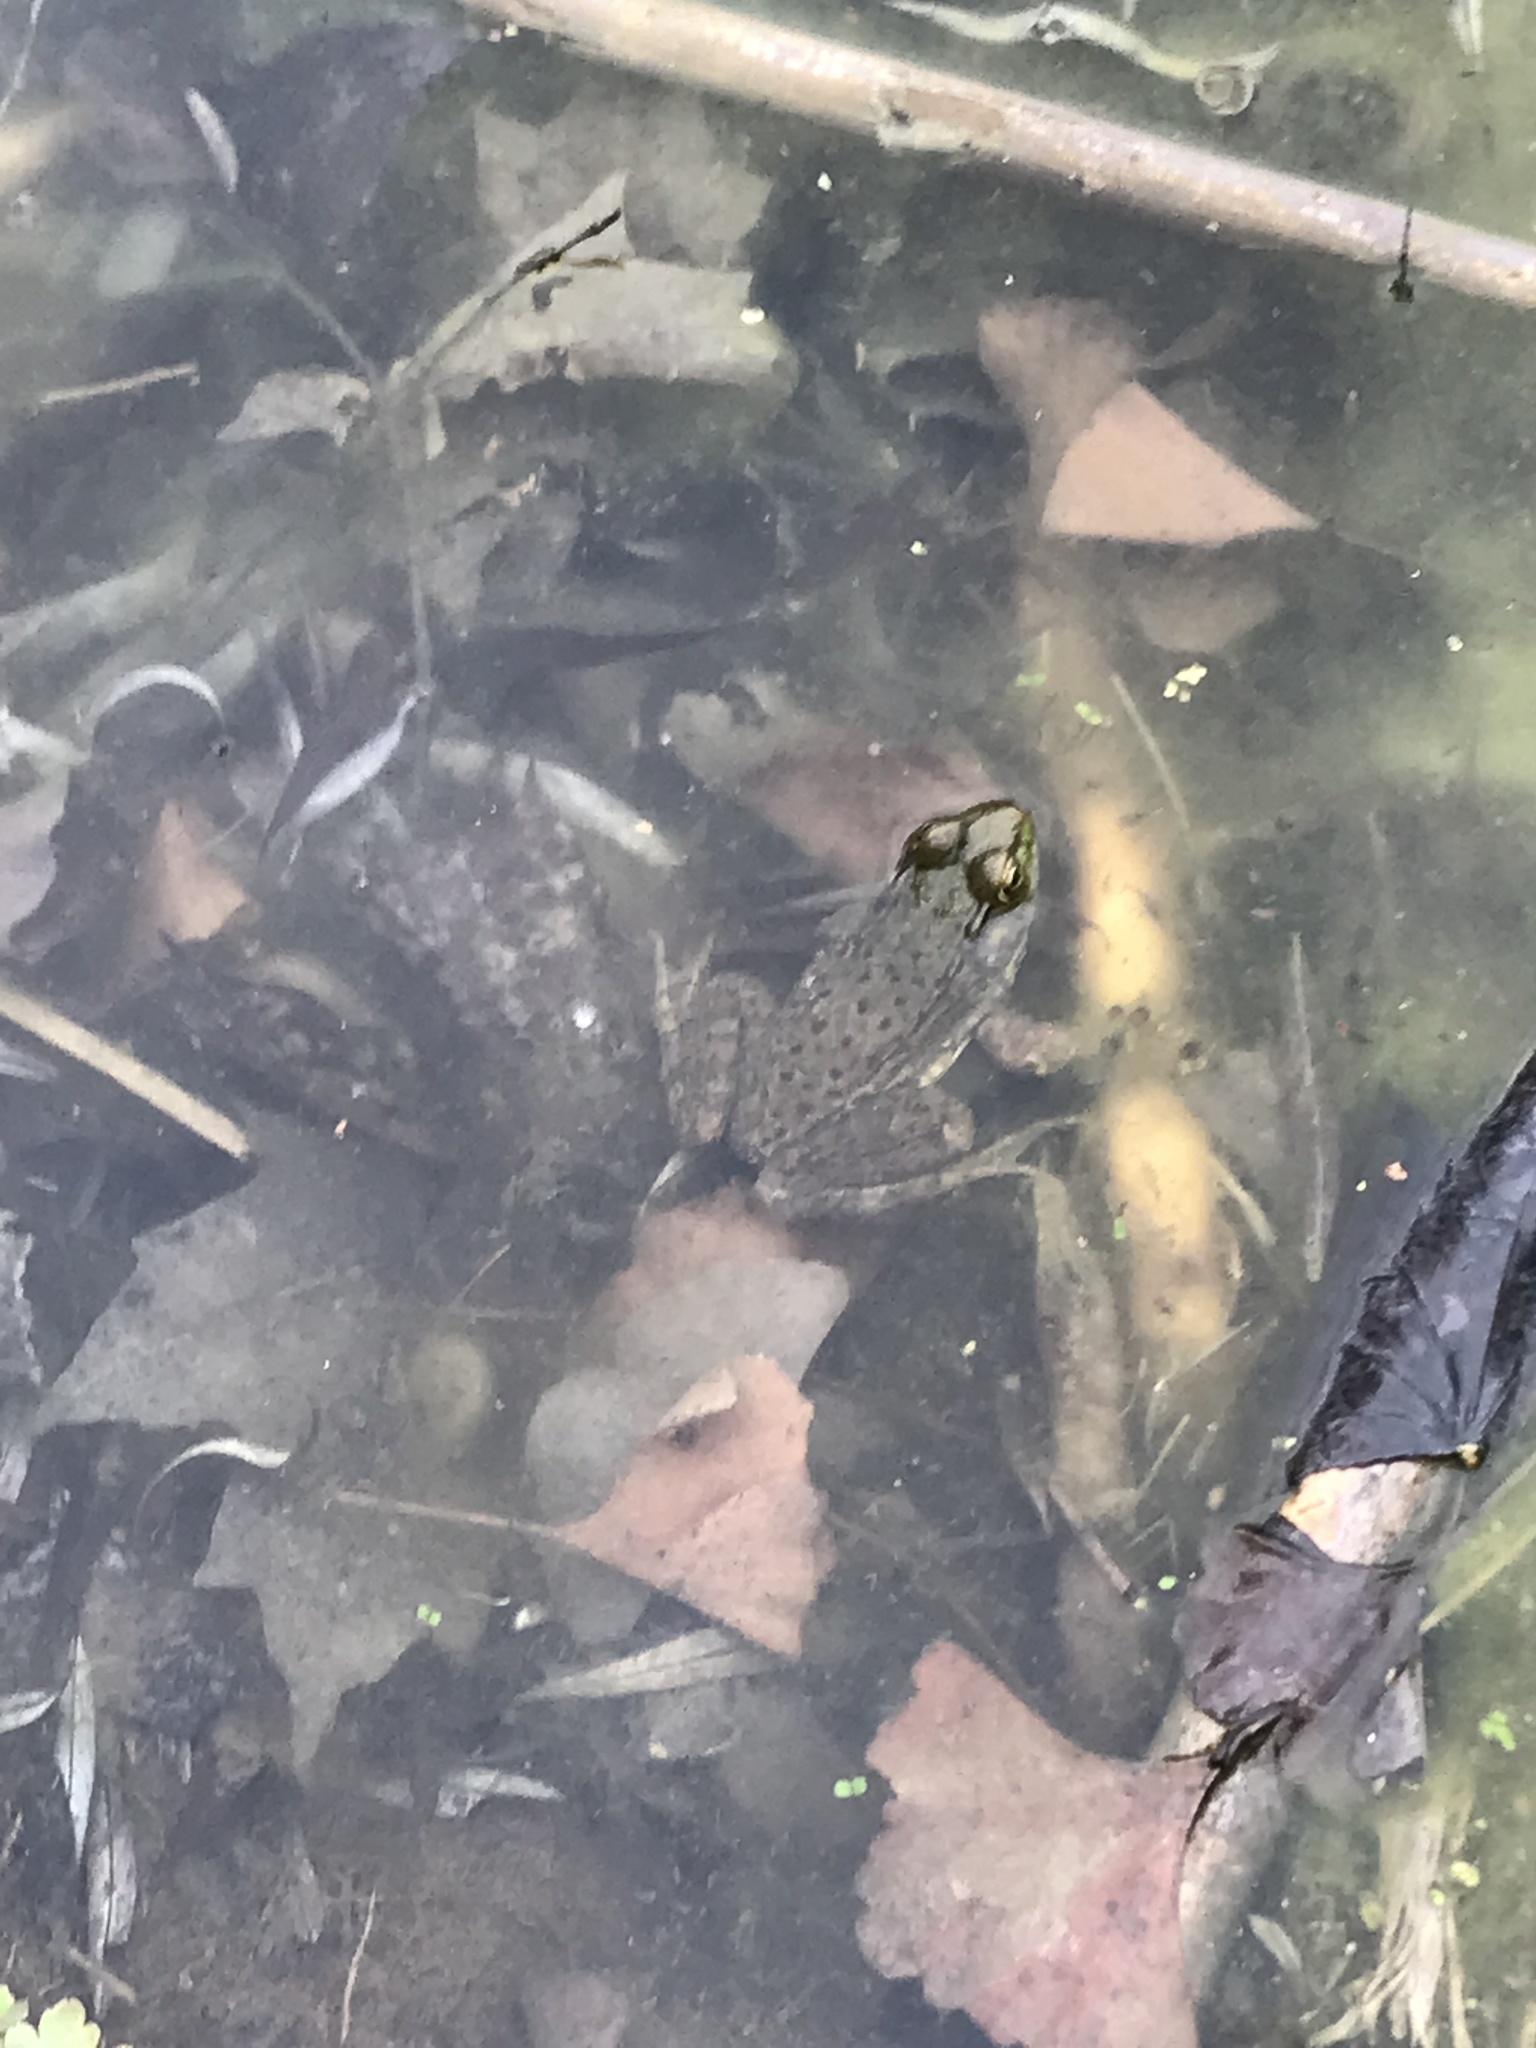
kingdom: Animalia
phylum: Chordata
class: Amphibia
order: Anura
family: Ranidae
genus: Lithobates
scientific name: Lithobates clamitans
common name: Green frog
